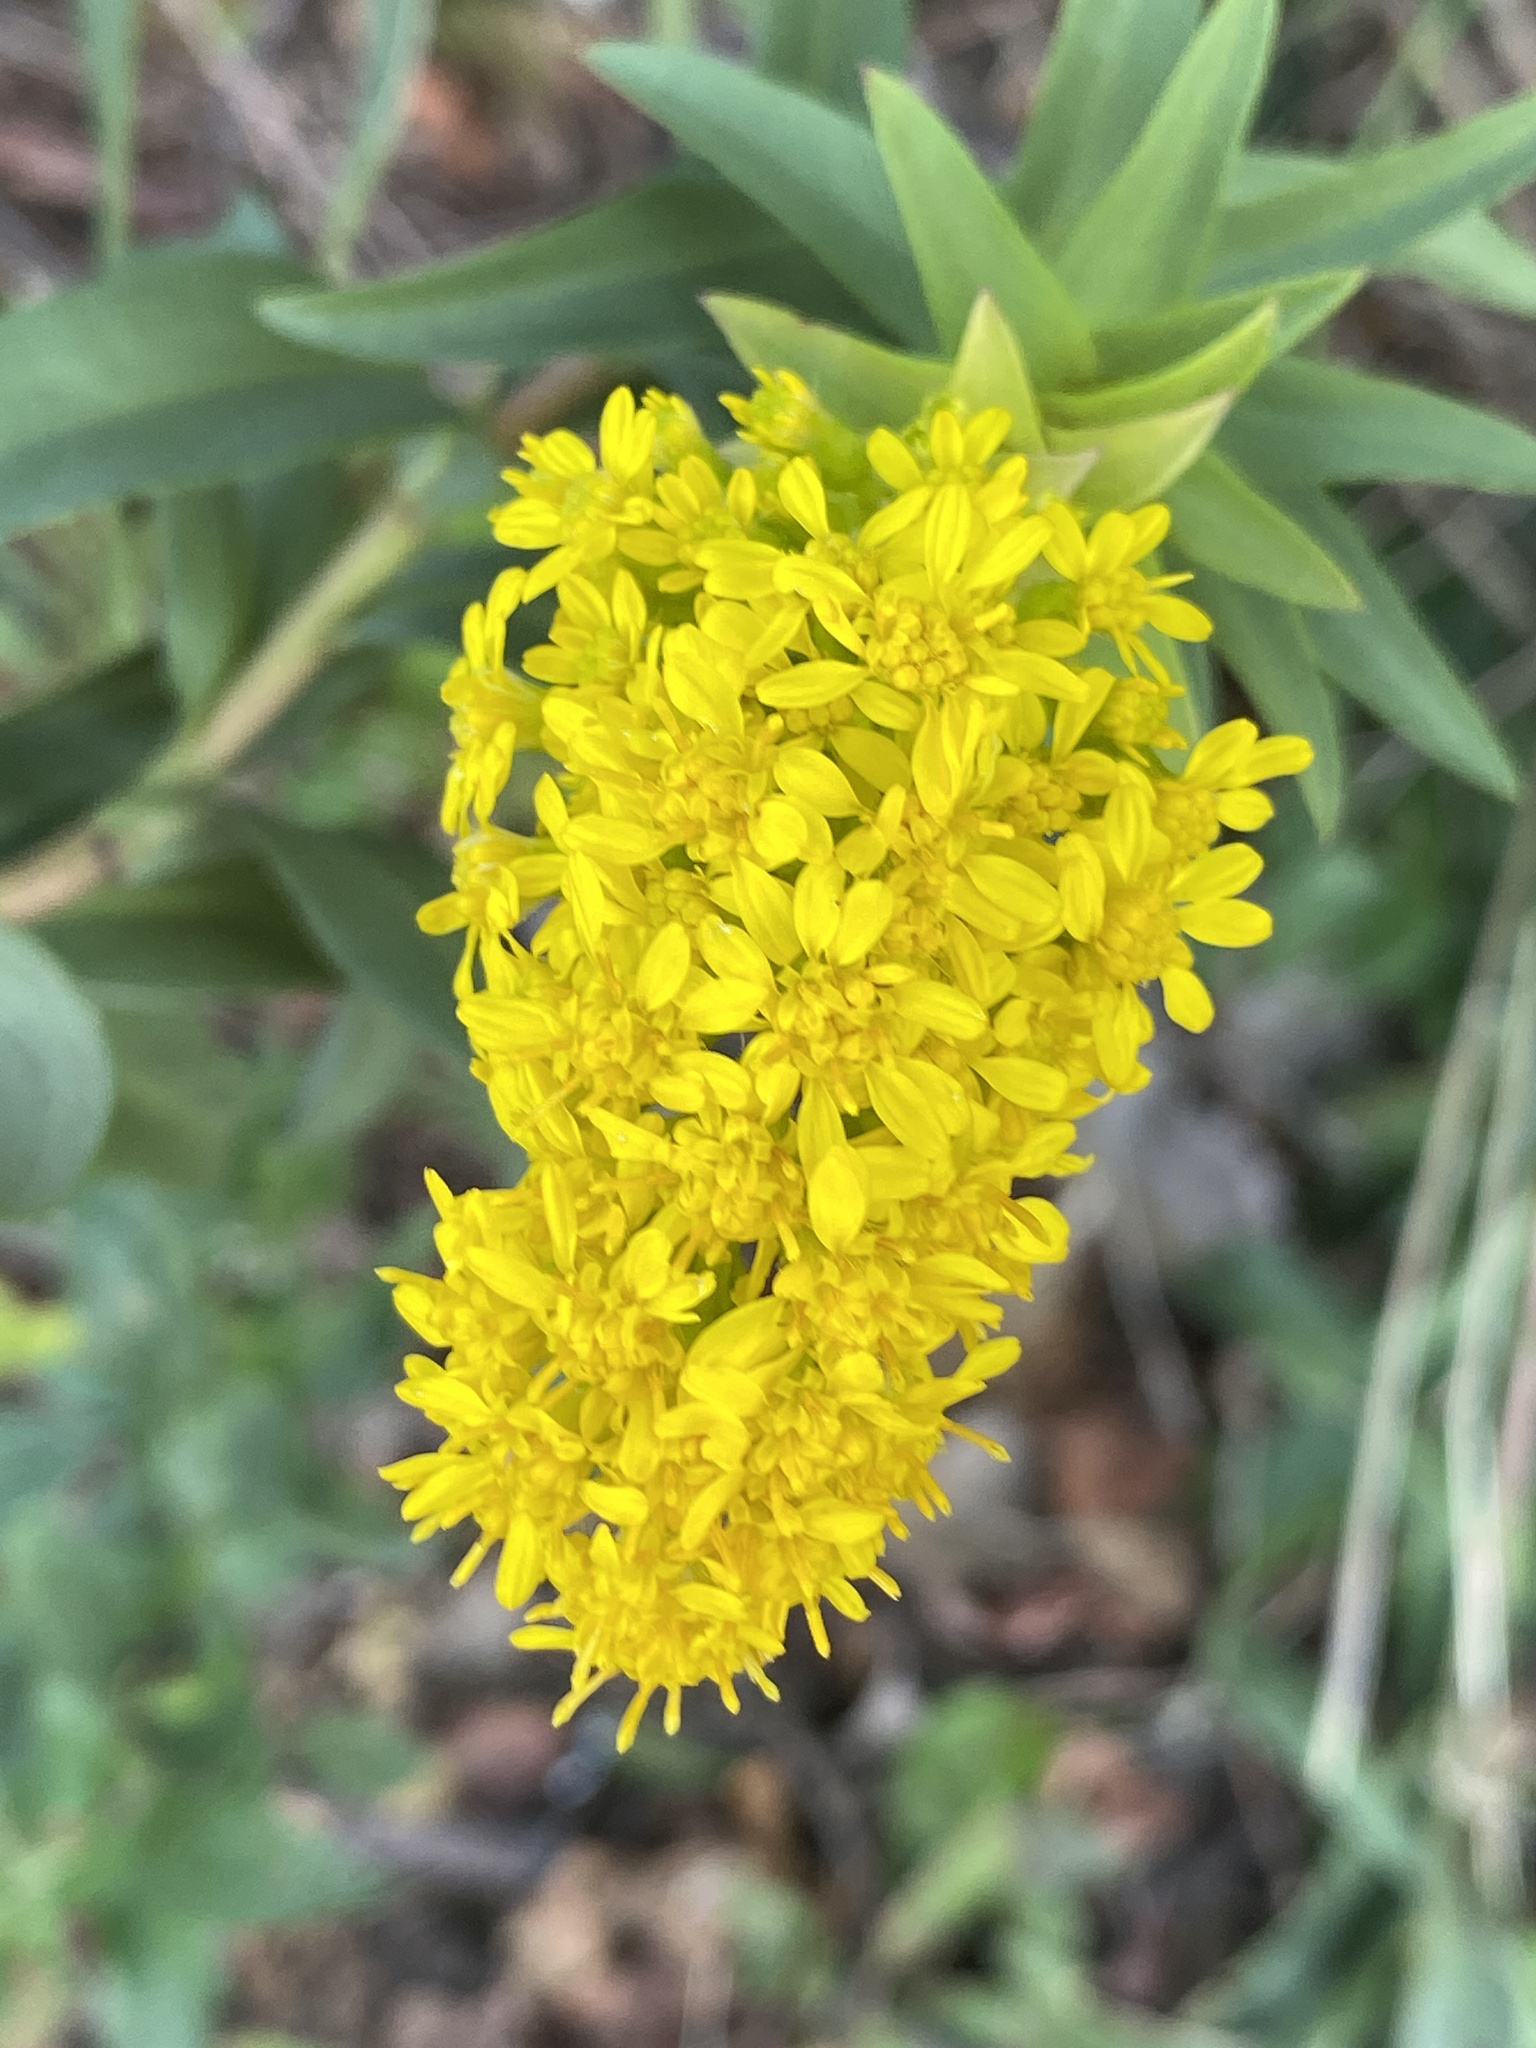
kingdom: Plantae
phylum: Tracheophyta
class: Magnoliopsida
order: Asterales
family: Asteraceae
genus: Solidago
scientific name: Solidago sempervirens
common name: Salt-marsh goldenrod
